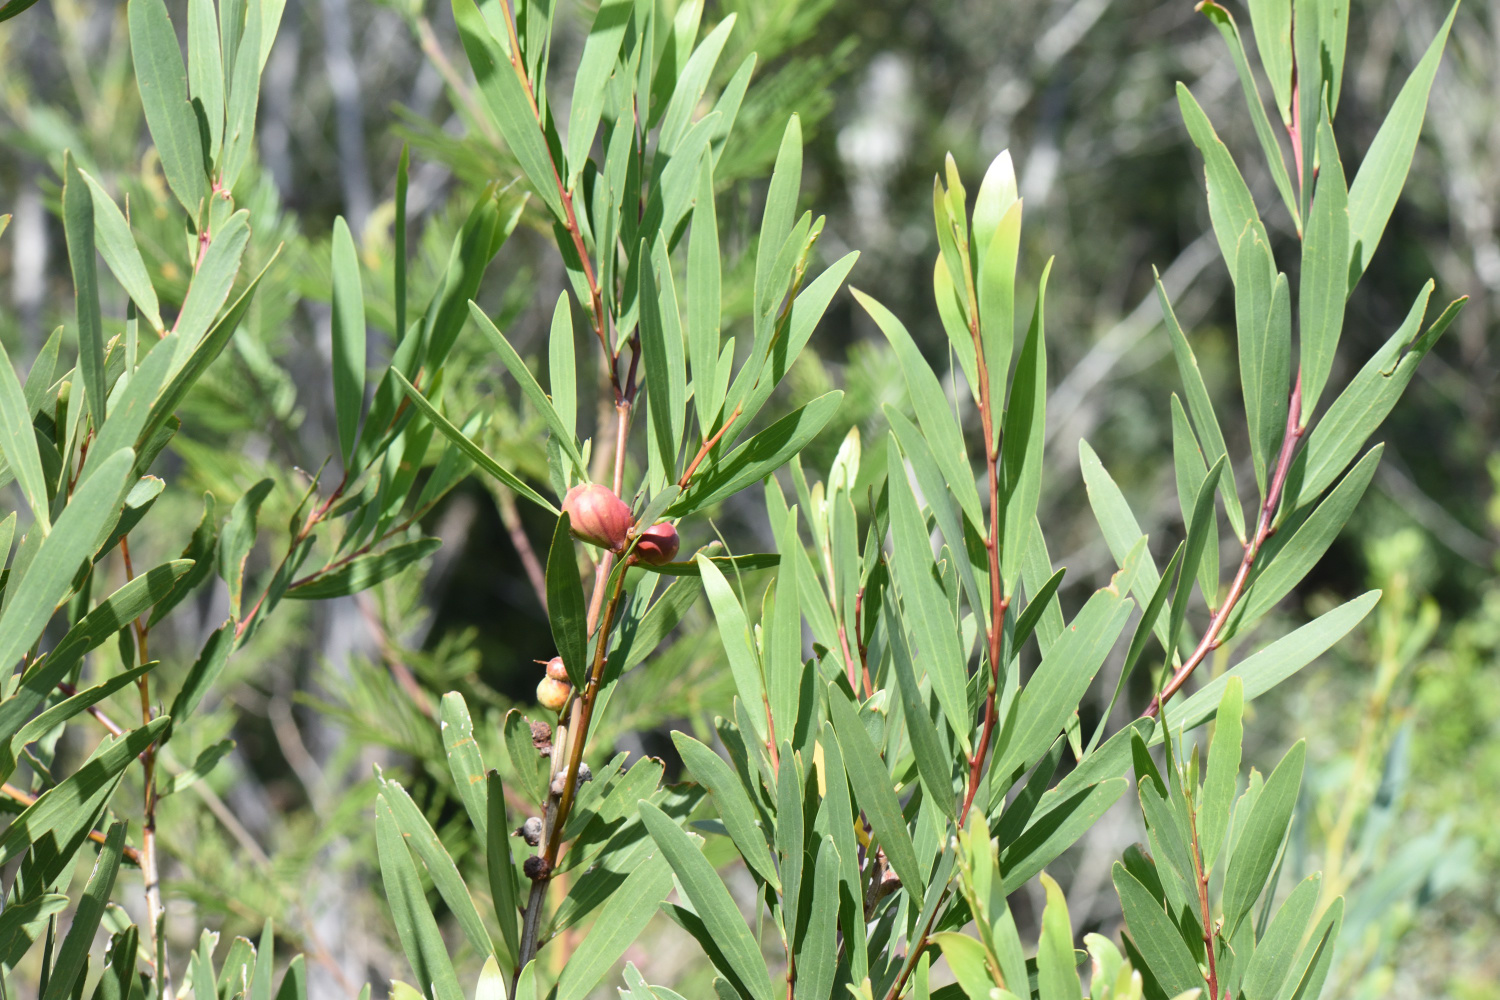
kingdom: Animalia
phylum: Arthropoda
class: Insecta
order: Hymenoptera
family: Pteromalidae
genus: Trichilogaster
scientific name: Trichilogaster acaciaelongifoliae
